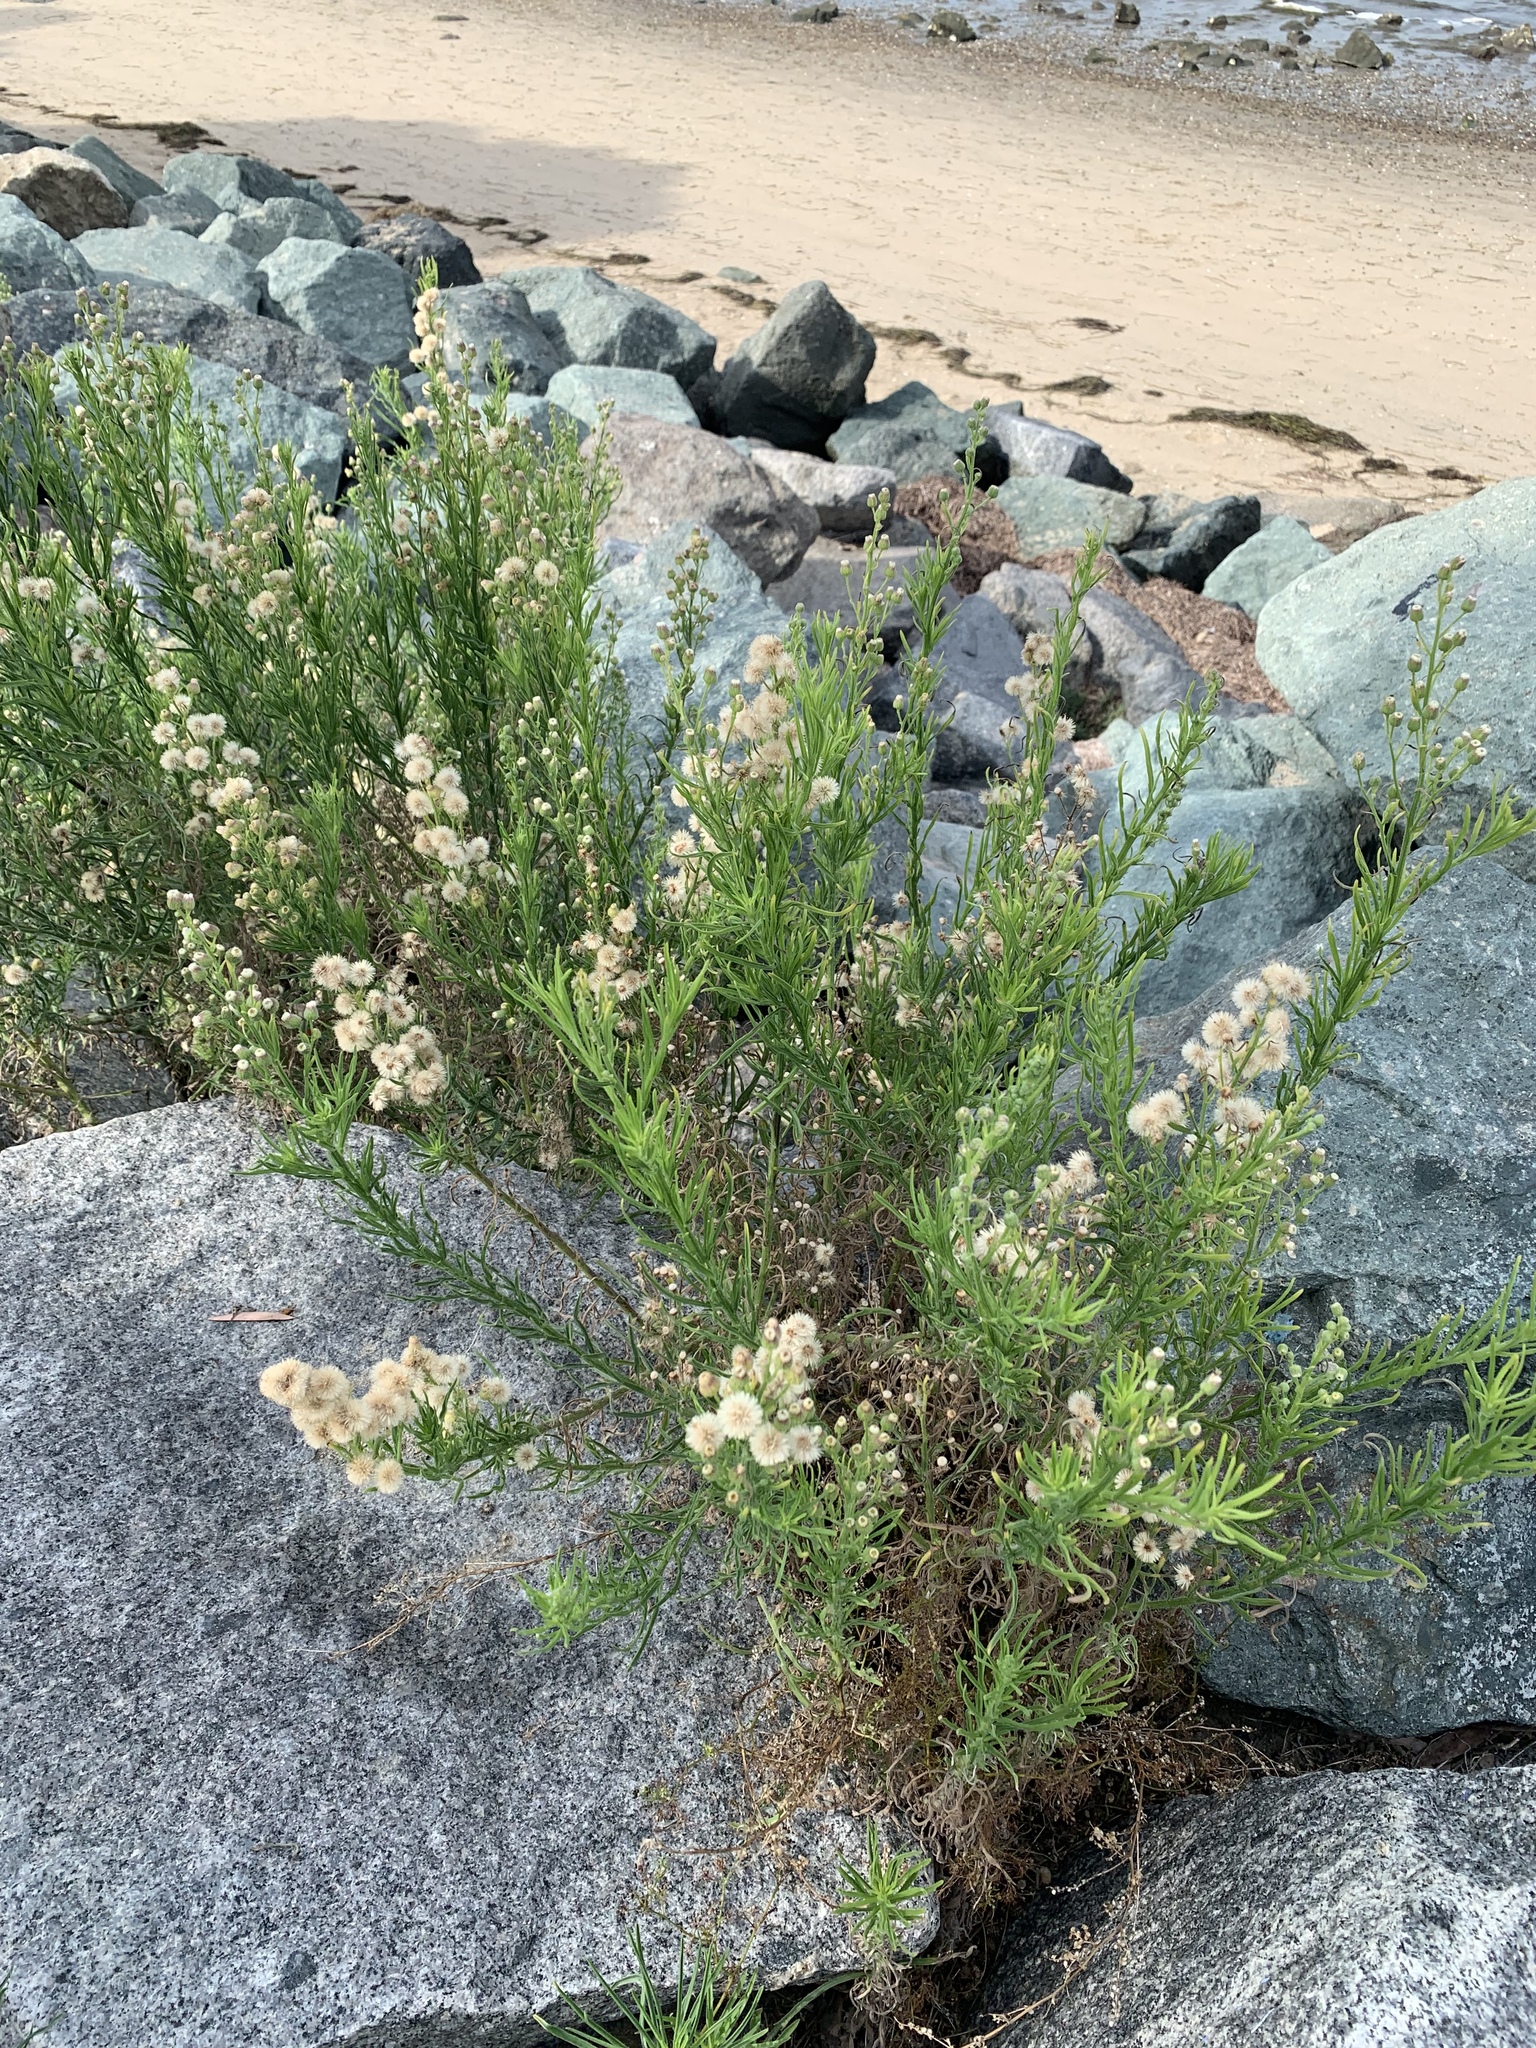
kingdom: Plantae
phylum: Tracheophyta
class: Magnoliopsida
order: Asterales
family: Asteraceae
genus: Erigeron
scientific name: Erigeron bonariensis
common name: Argentine fleabane
